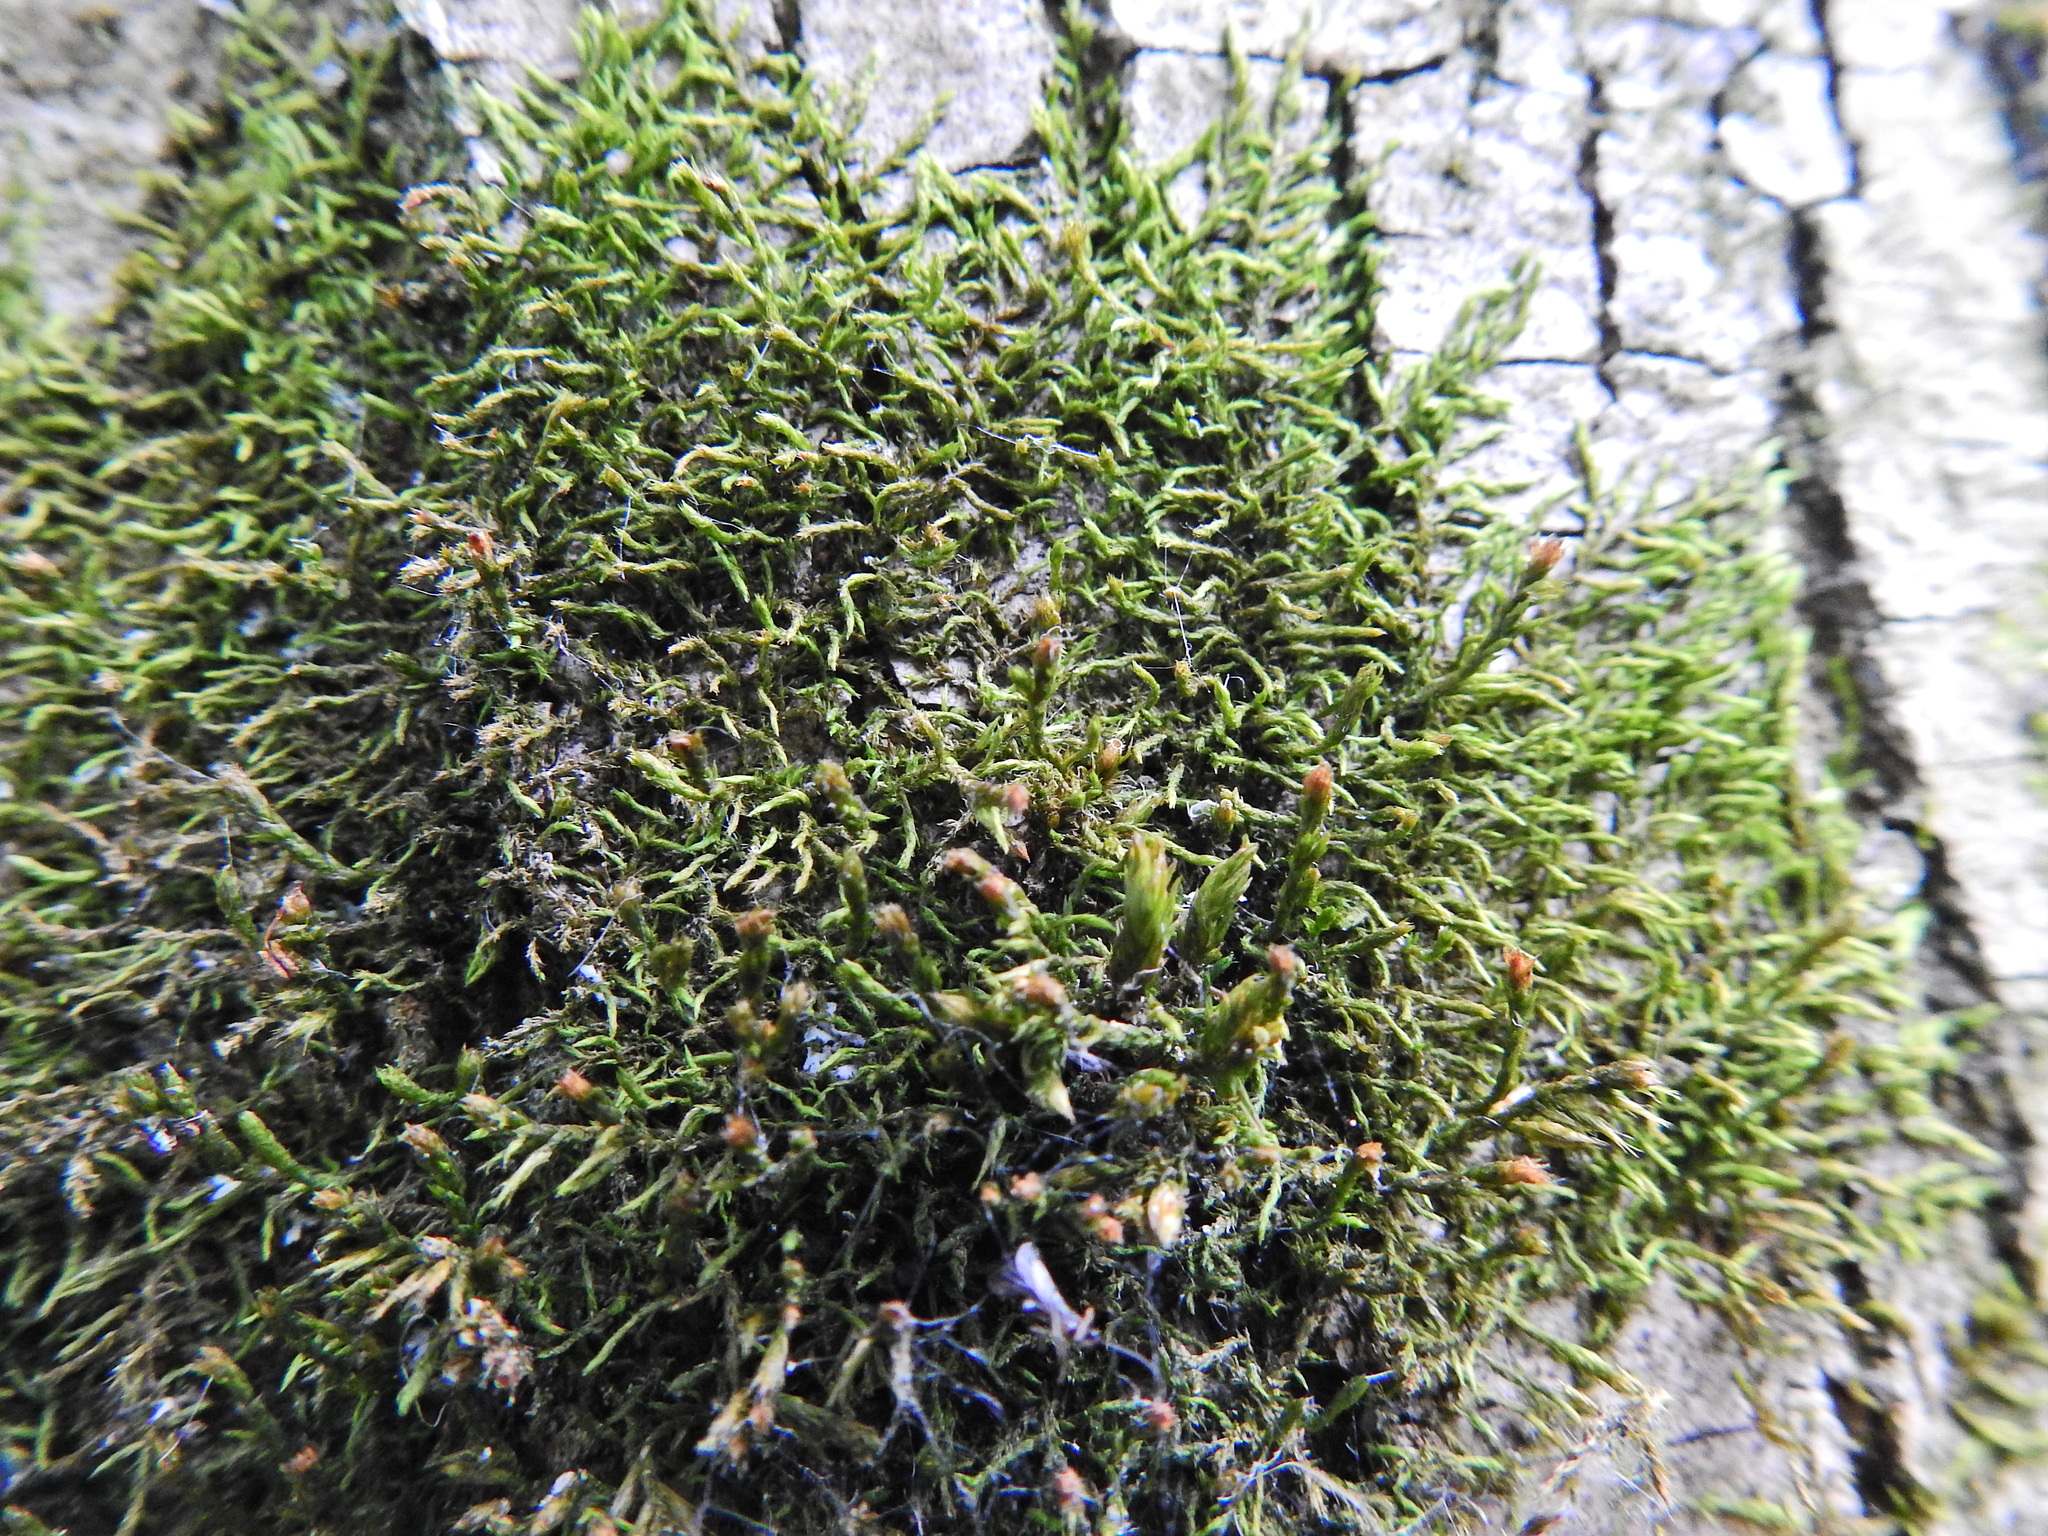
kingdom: Plantae
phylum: Bryophyta
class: Bryopsida
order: Hypnales
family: Cryphaeaceae
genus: Cryphaea
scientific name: Cryphaea heteromalla
